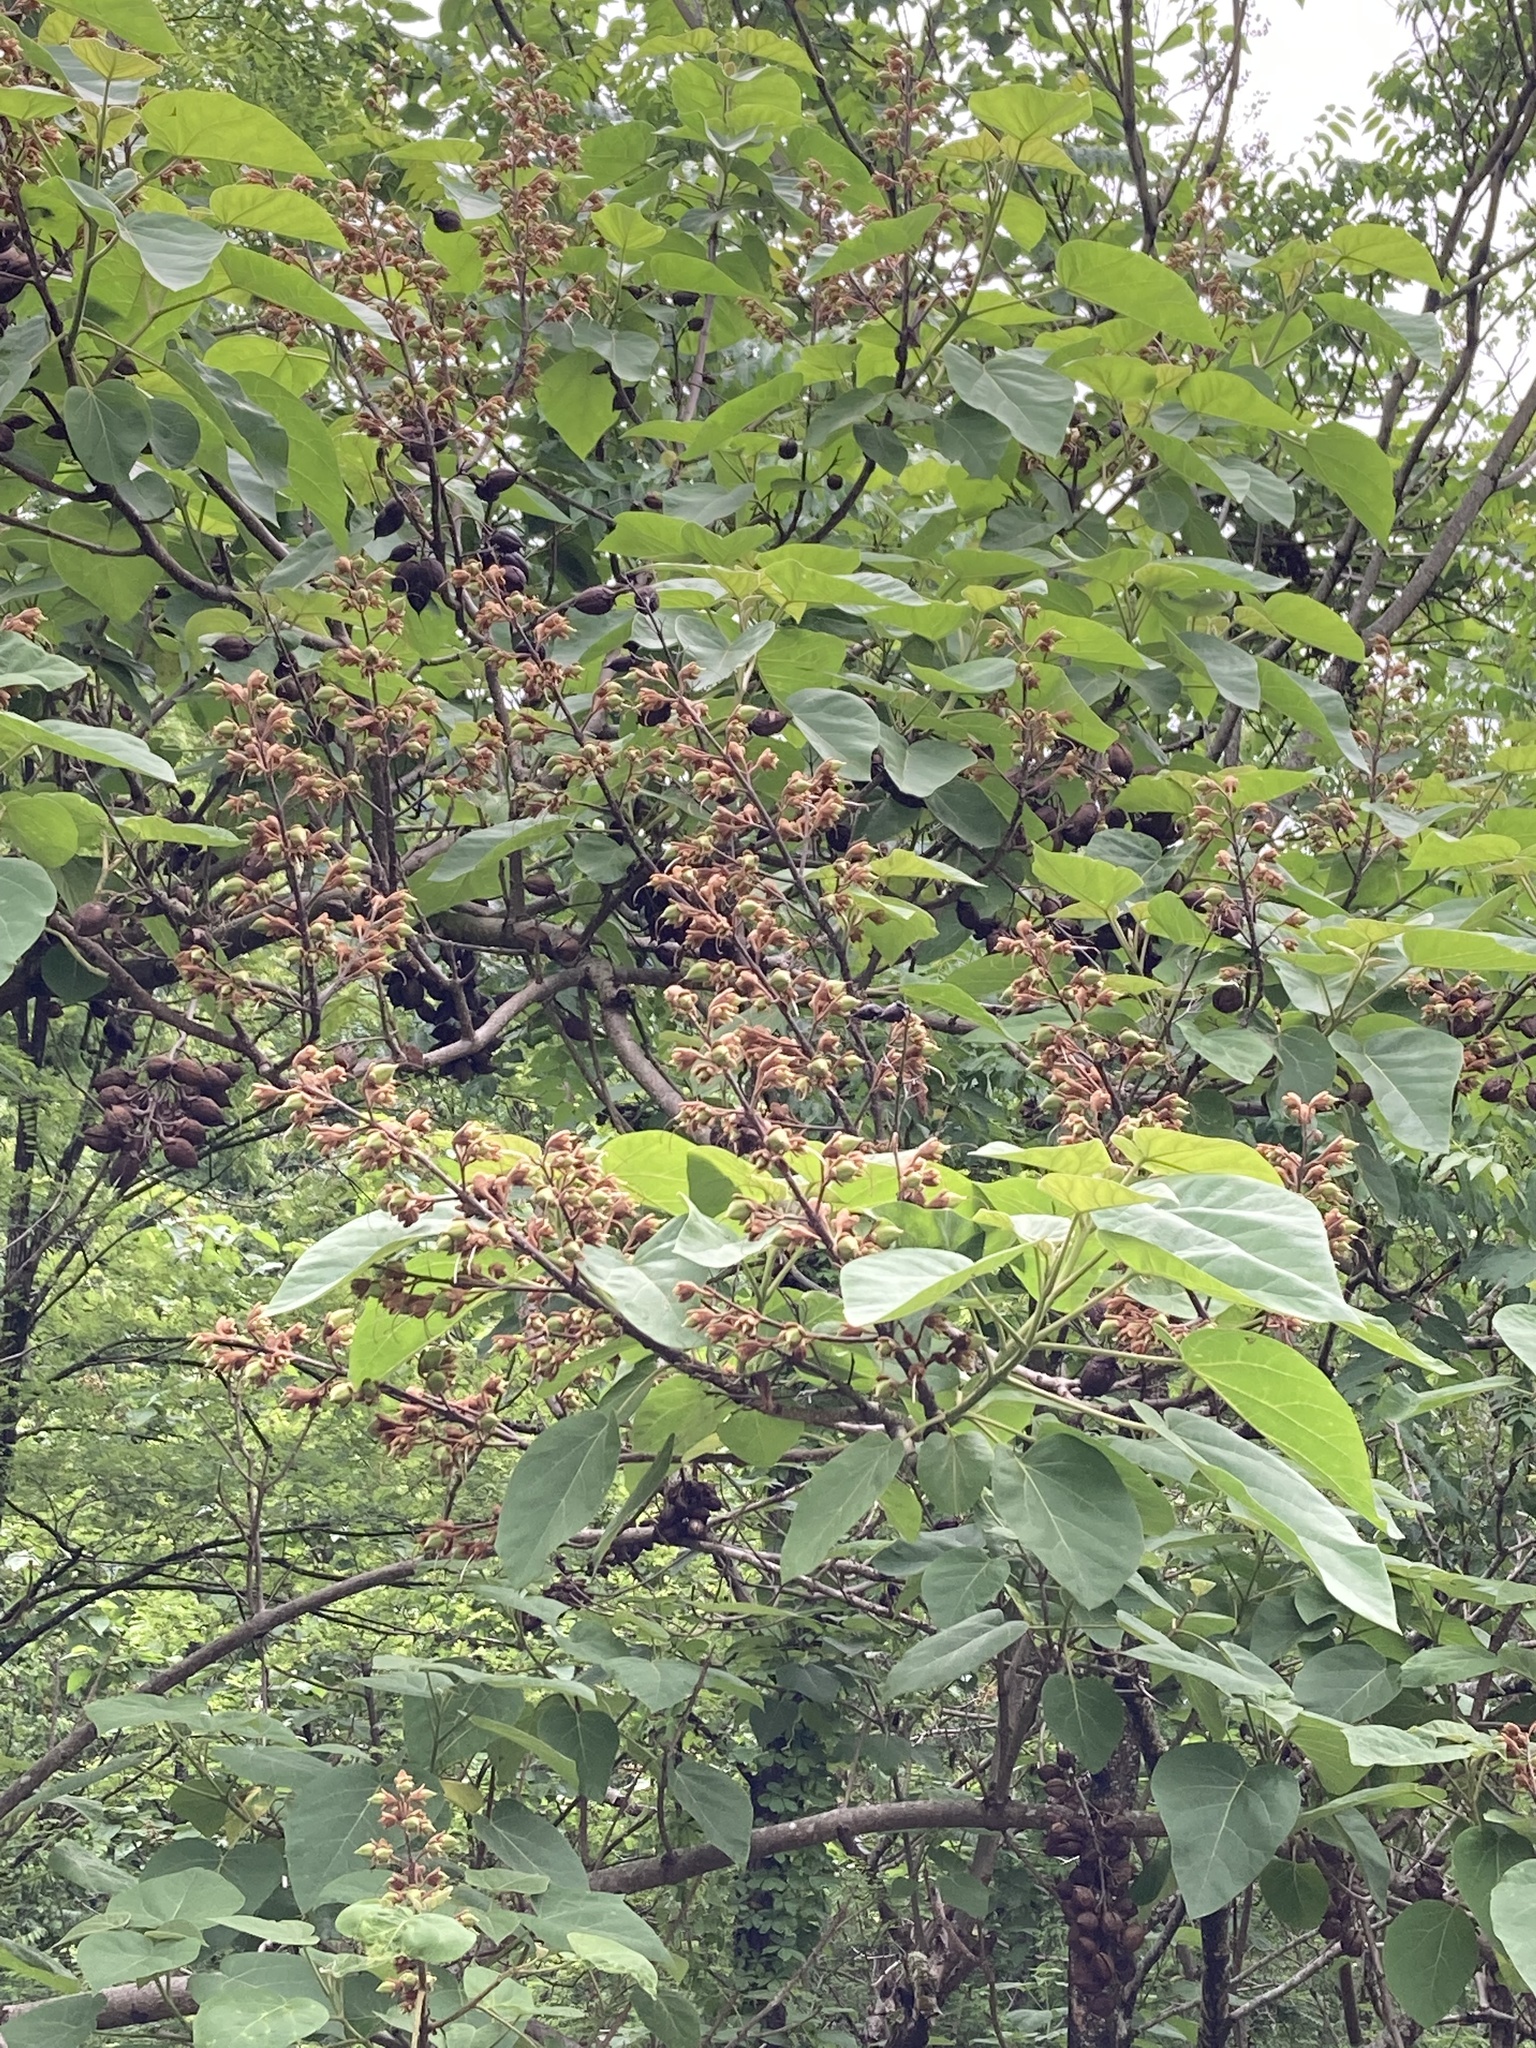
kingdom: Plantae
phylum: Tracheophyta
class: Magnoliopsida
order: Lamiales
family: Paulowniaceae
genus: Paulownia
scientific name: Paulownia tomentosa
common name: Foxglove-tree
